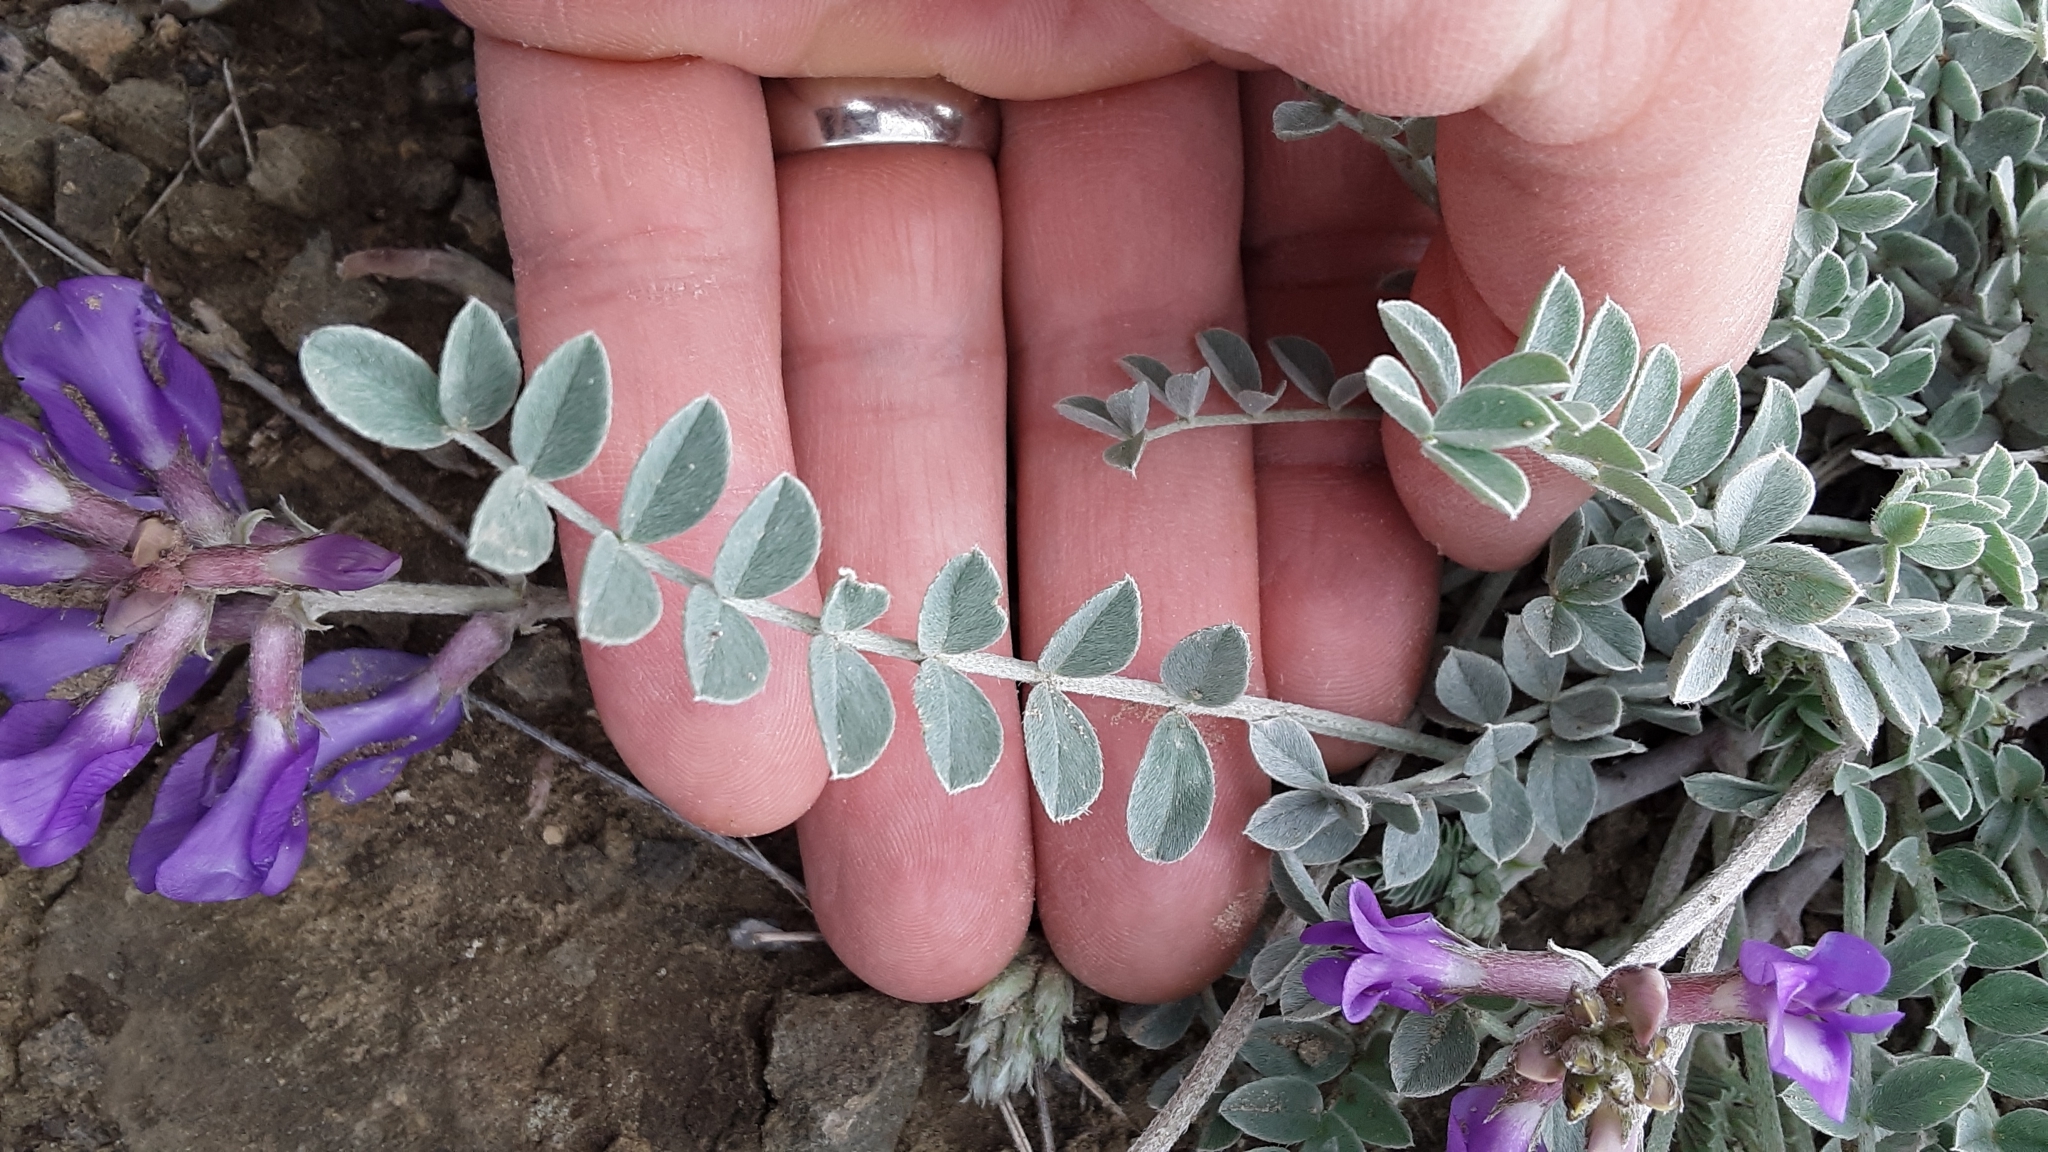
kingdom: Plantae
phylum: Tracheophyta
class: Magnoliopsida
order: Fabales
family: Fabaceae
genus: Astragalus
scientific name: Astragalus missouriensis
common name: Missouri milk-vetch
